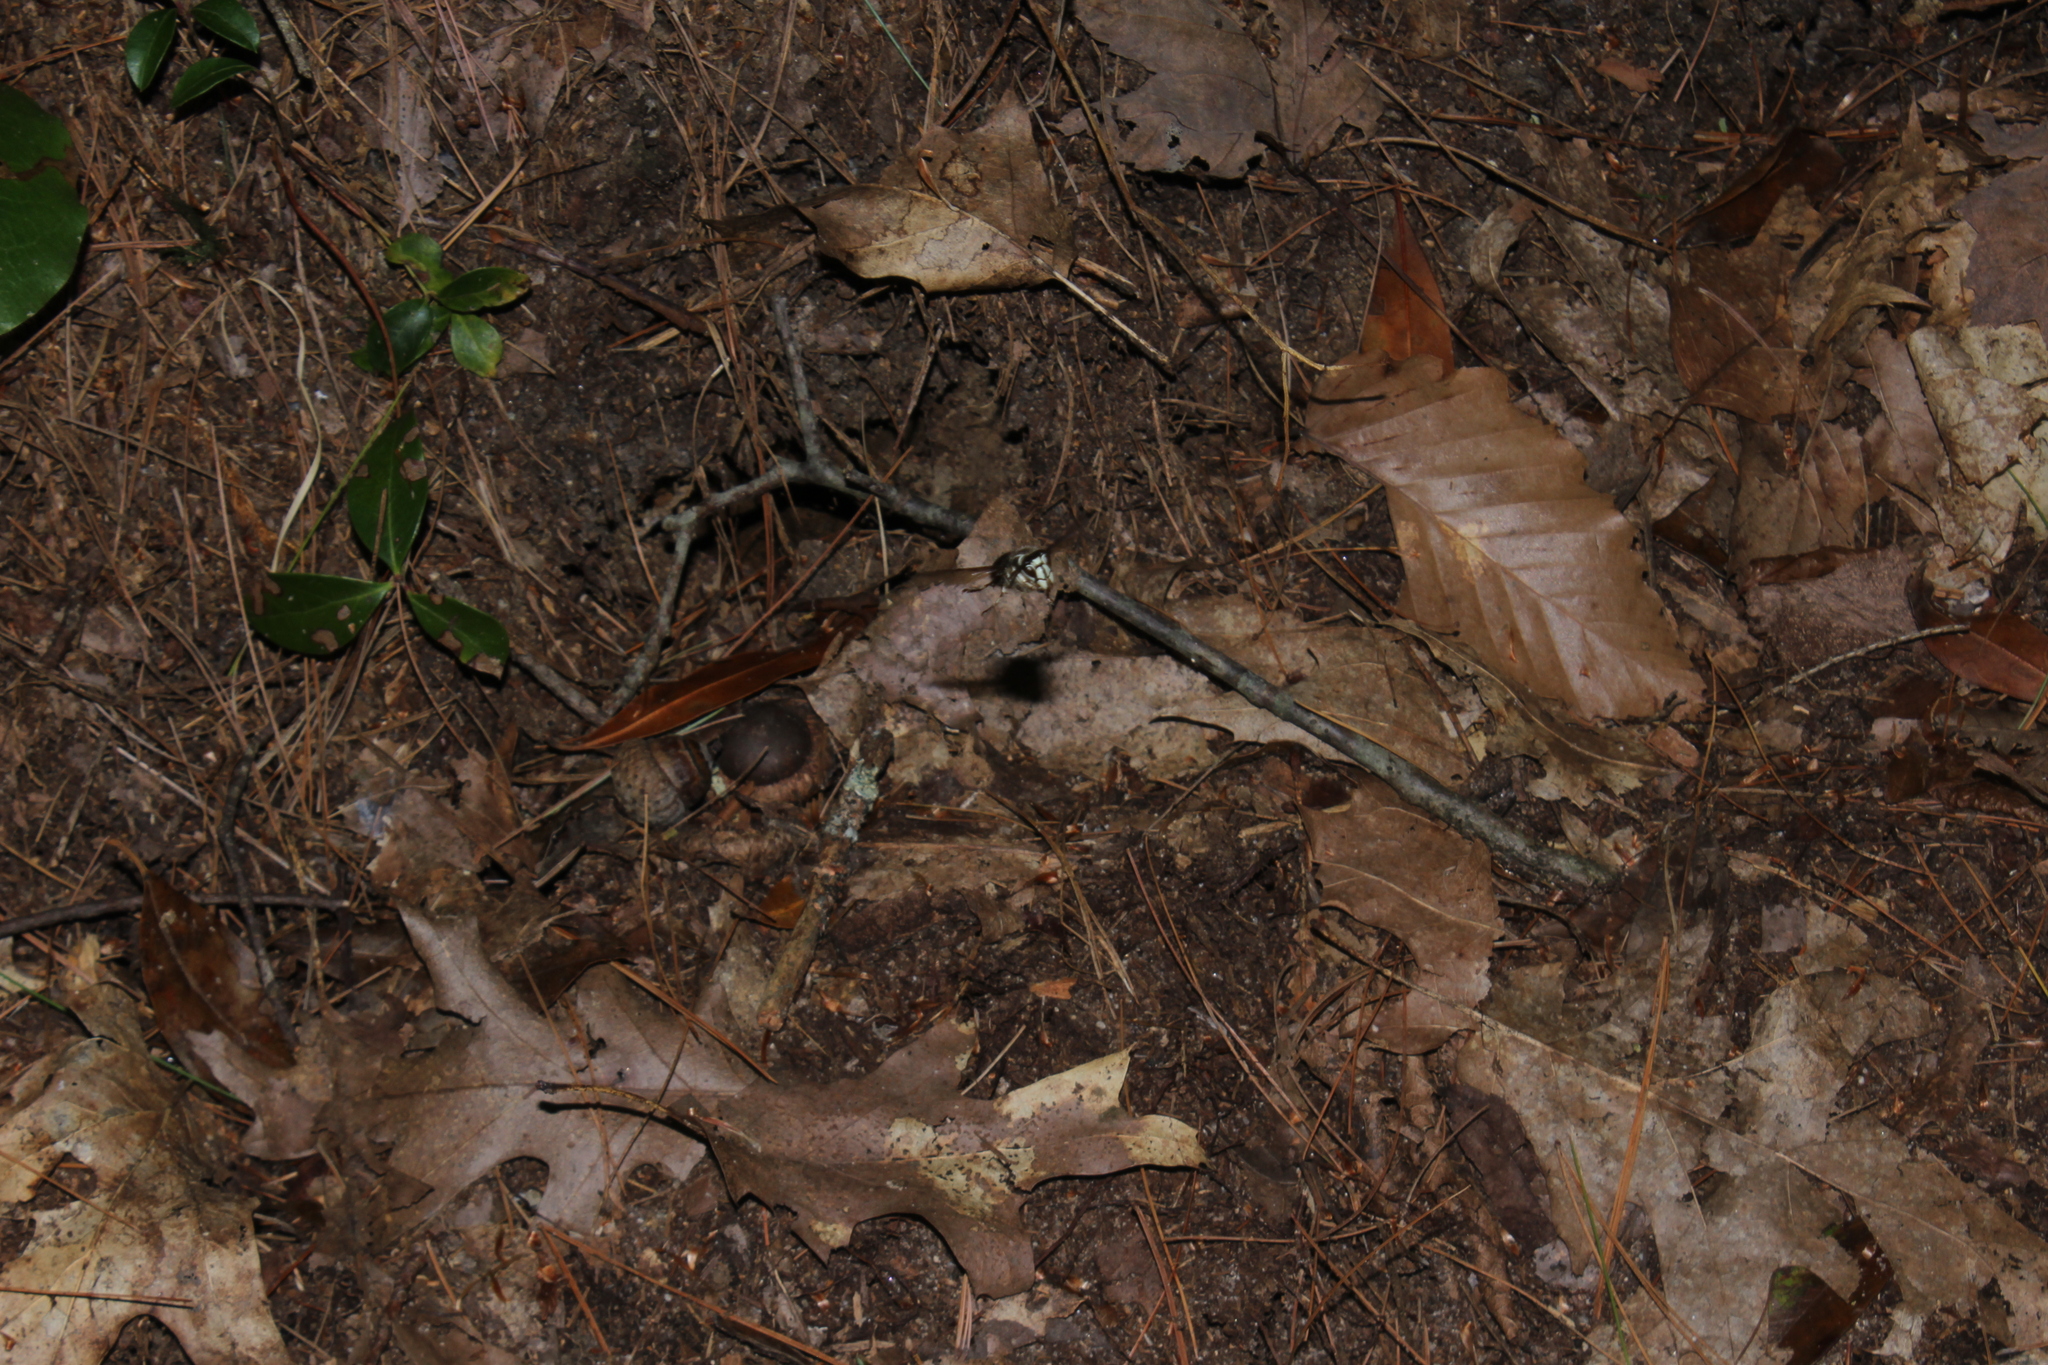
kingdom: Animalia
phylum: Arthropoda
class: Insecta
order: Hymenoptera
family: Vespidae
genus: Dolichovespula
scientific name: Dolichovespula maculata
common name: Bald-faced hornet
